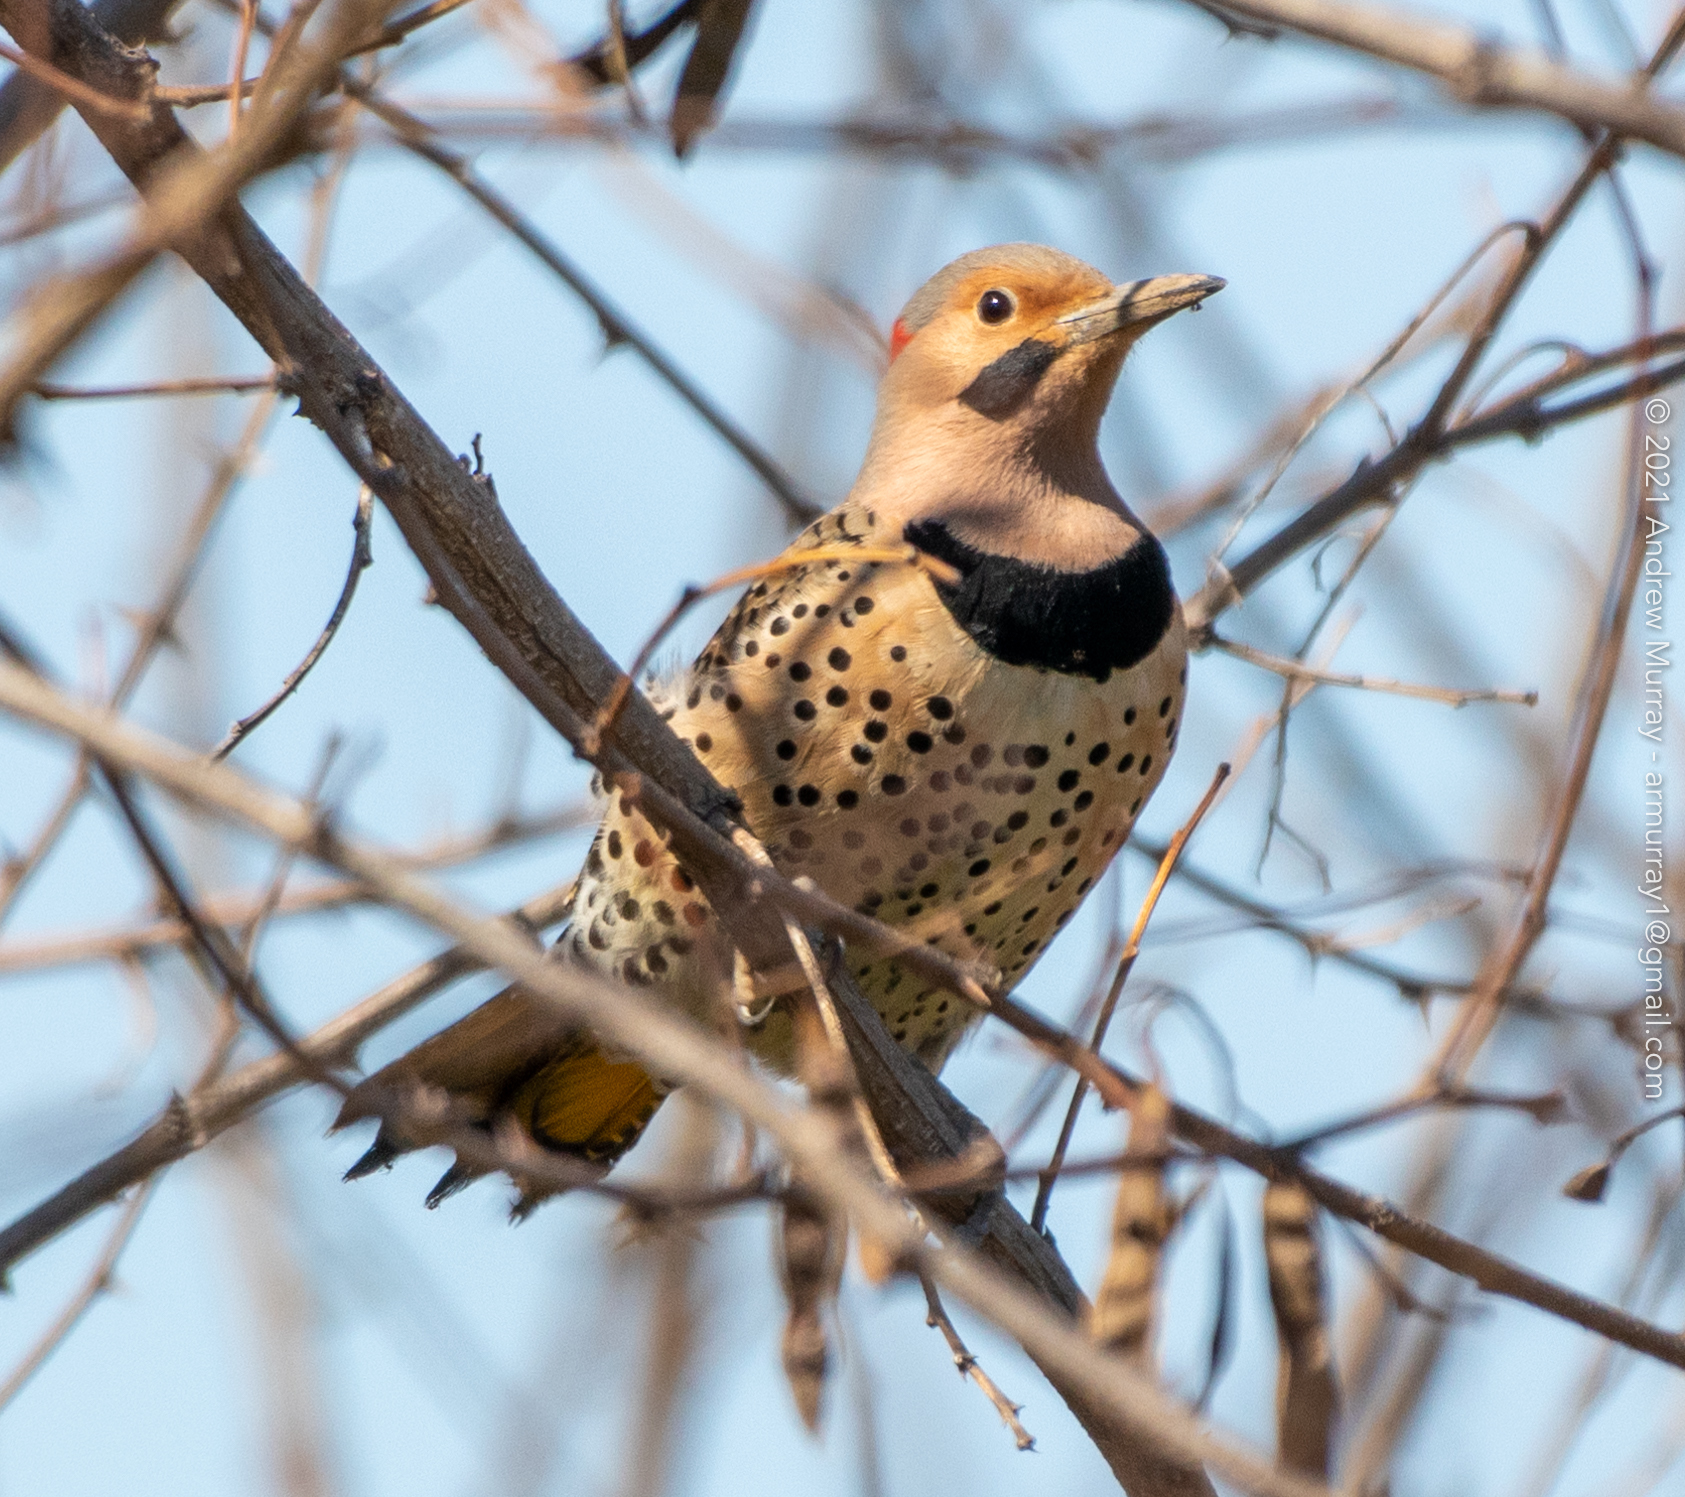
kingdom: Animalia
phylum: Chordata
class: Aves
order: Piciformes
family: Picidae
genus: Colaptes
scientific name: Colaptes auratus
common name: Northern flicker
